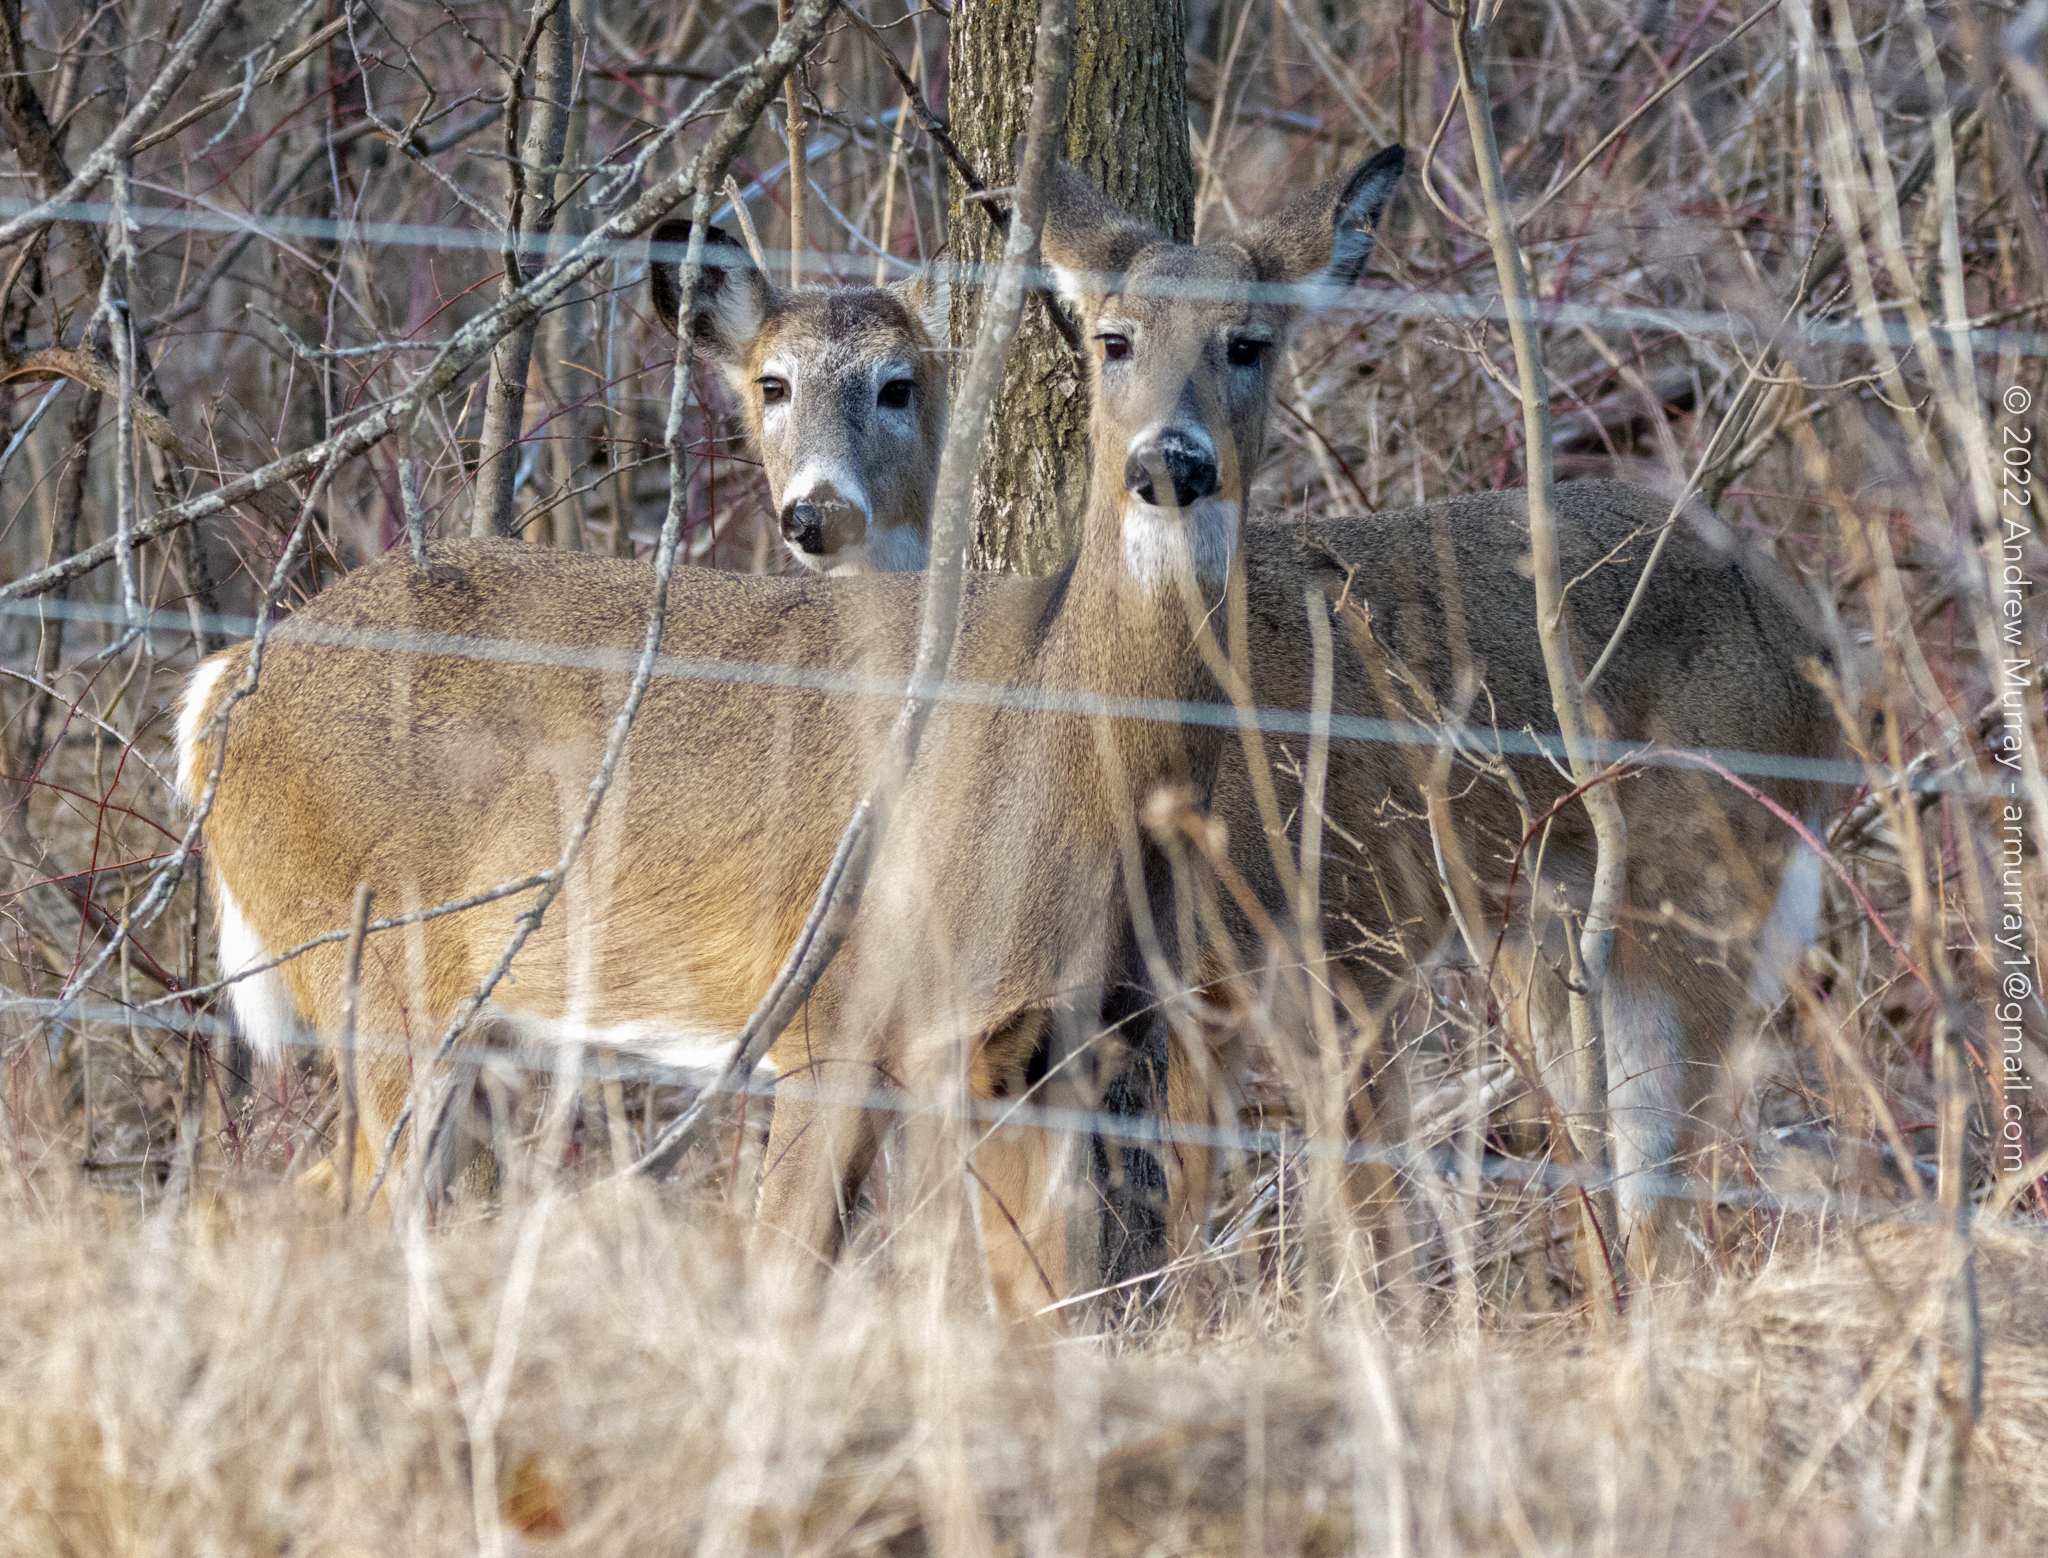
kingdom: Animalia
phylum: Chordata
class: Mammalia
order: Artiodactyla
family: Cervidae
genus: Odocoileus
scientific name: Odocoileus virginianus
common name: White-tailed deer
